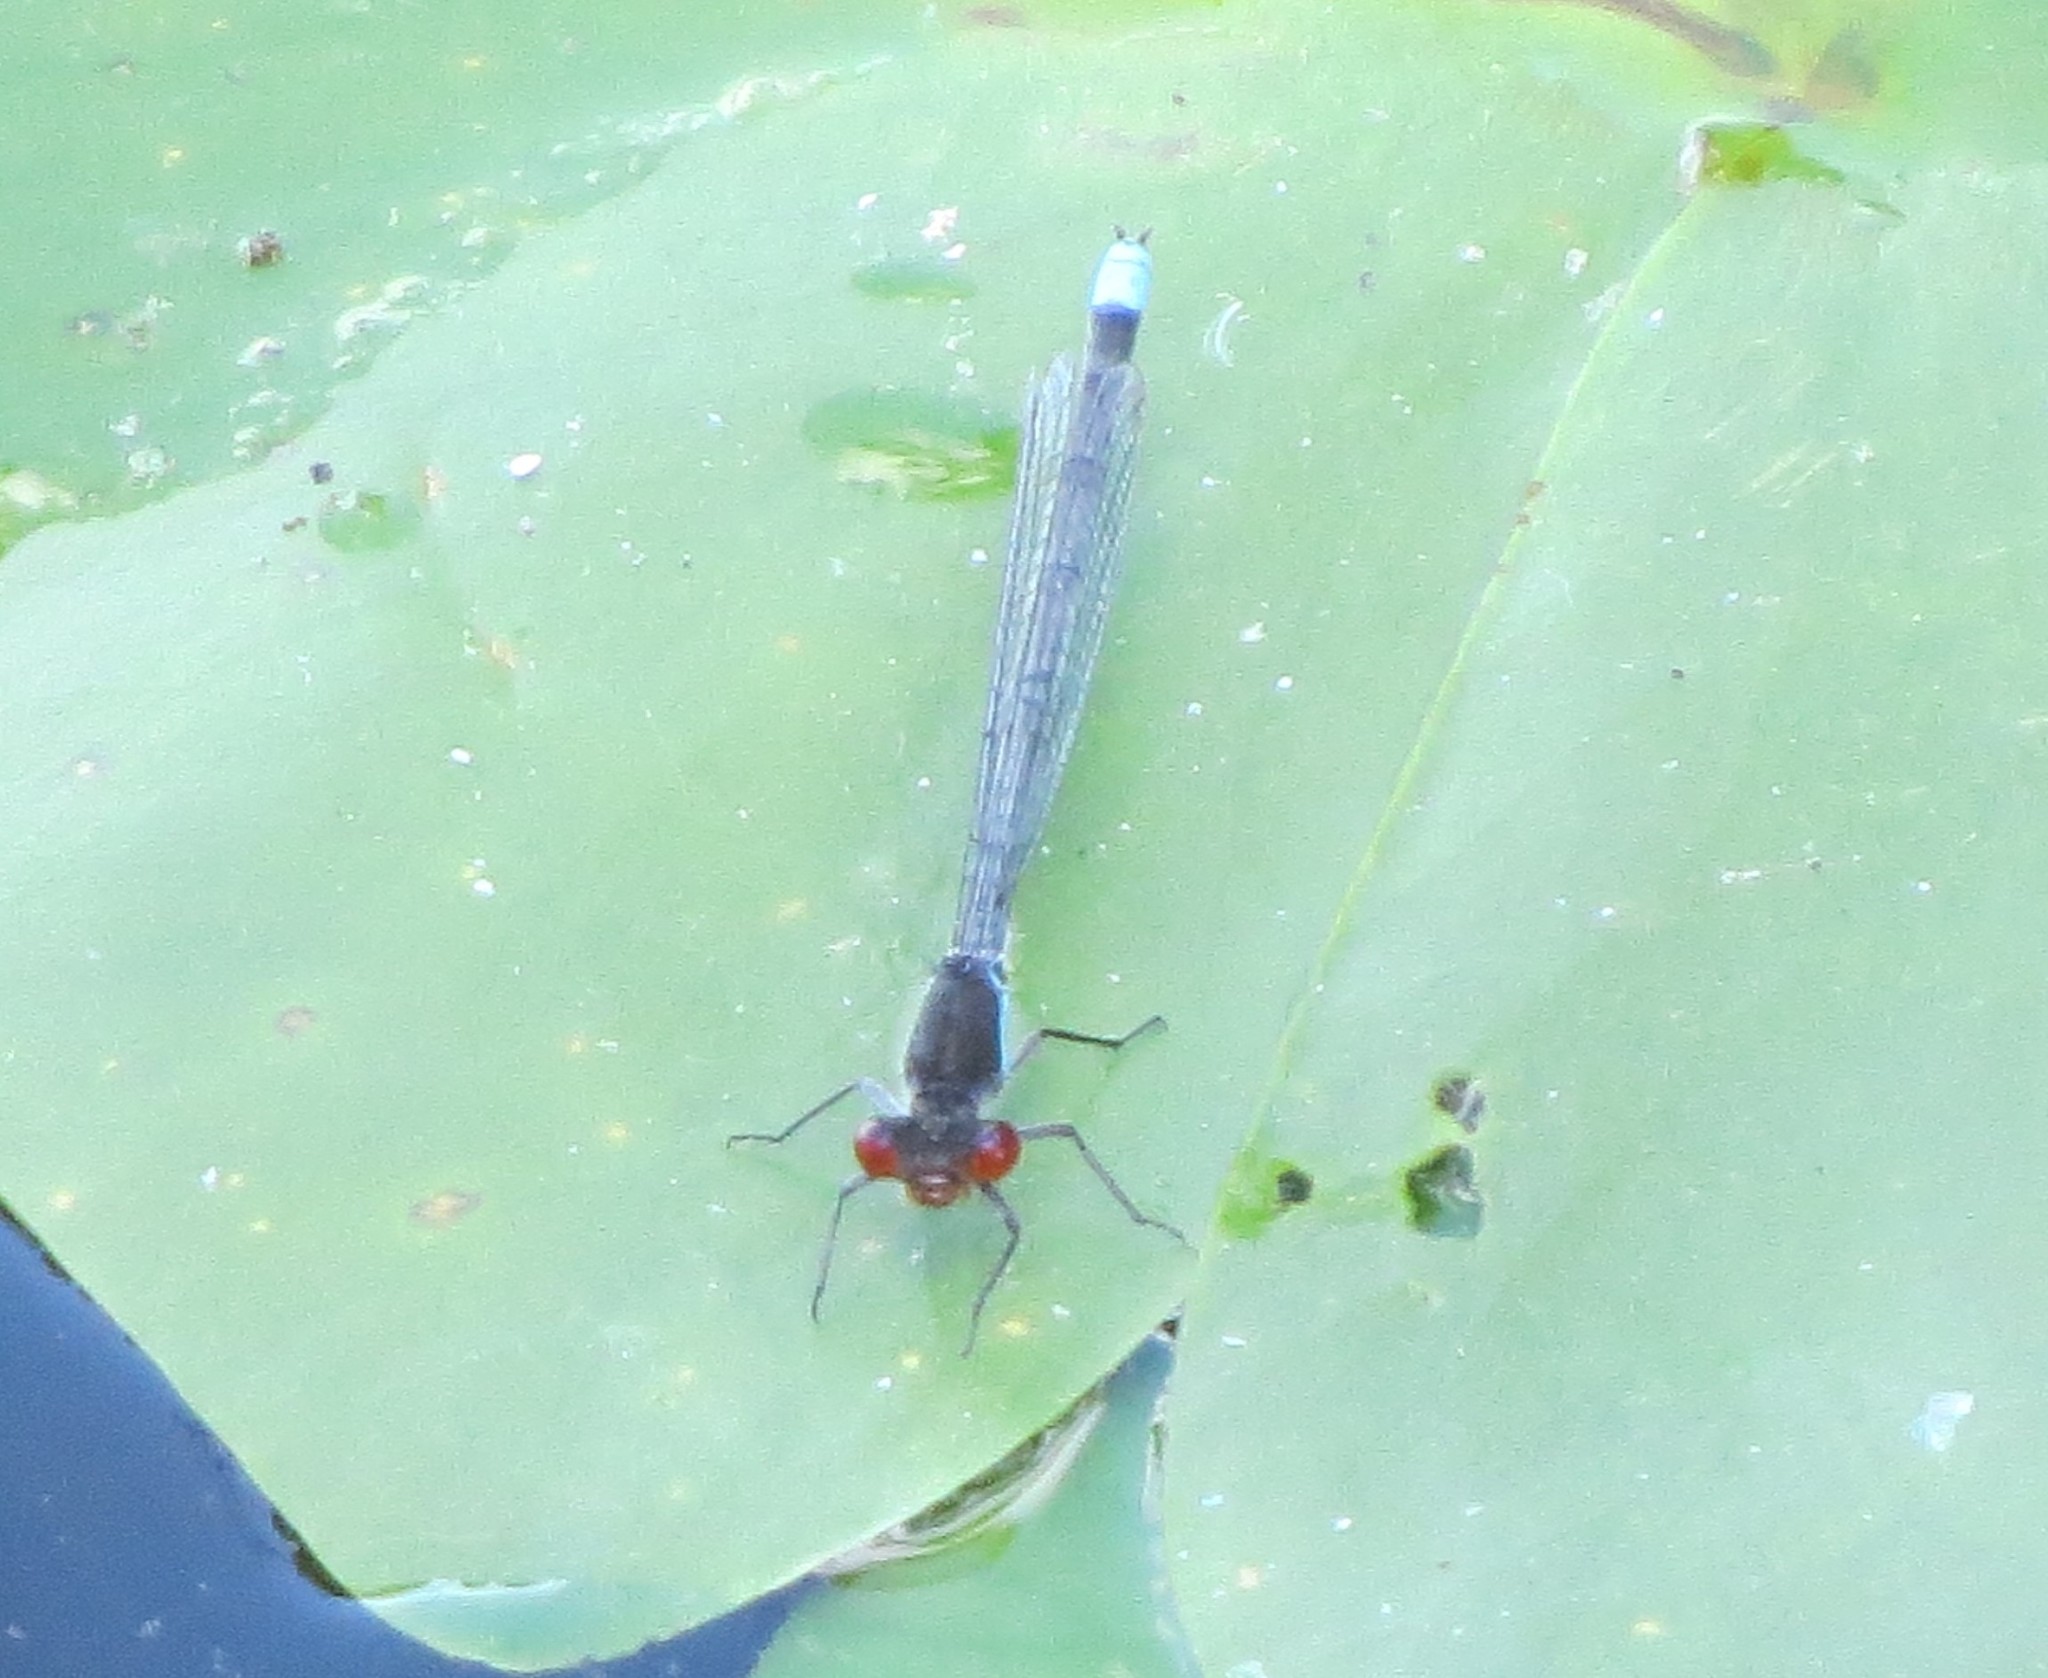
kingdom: Animalia
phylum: Arthropoda
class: Insecta
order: Odonata
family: Coenagrionidae
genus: Erythromma
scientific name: Erythromma najas
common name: Red-eyed damselfly
